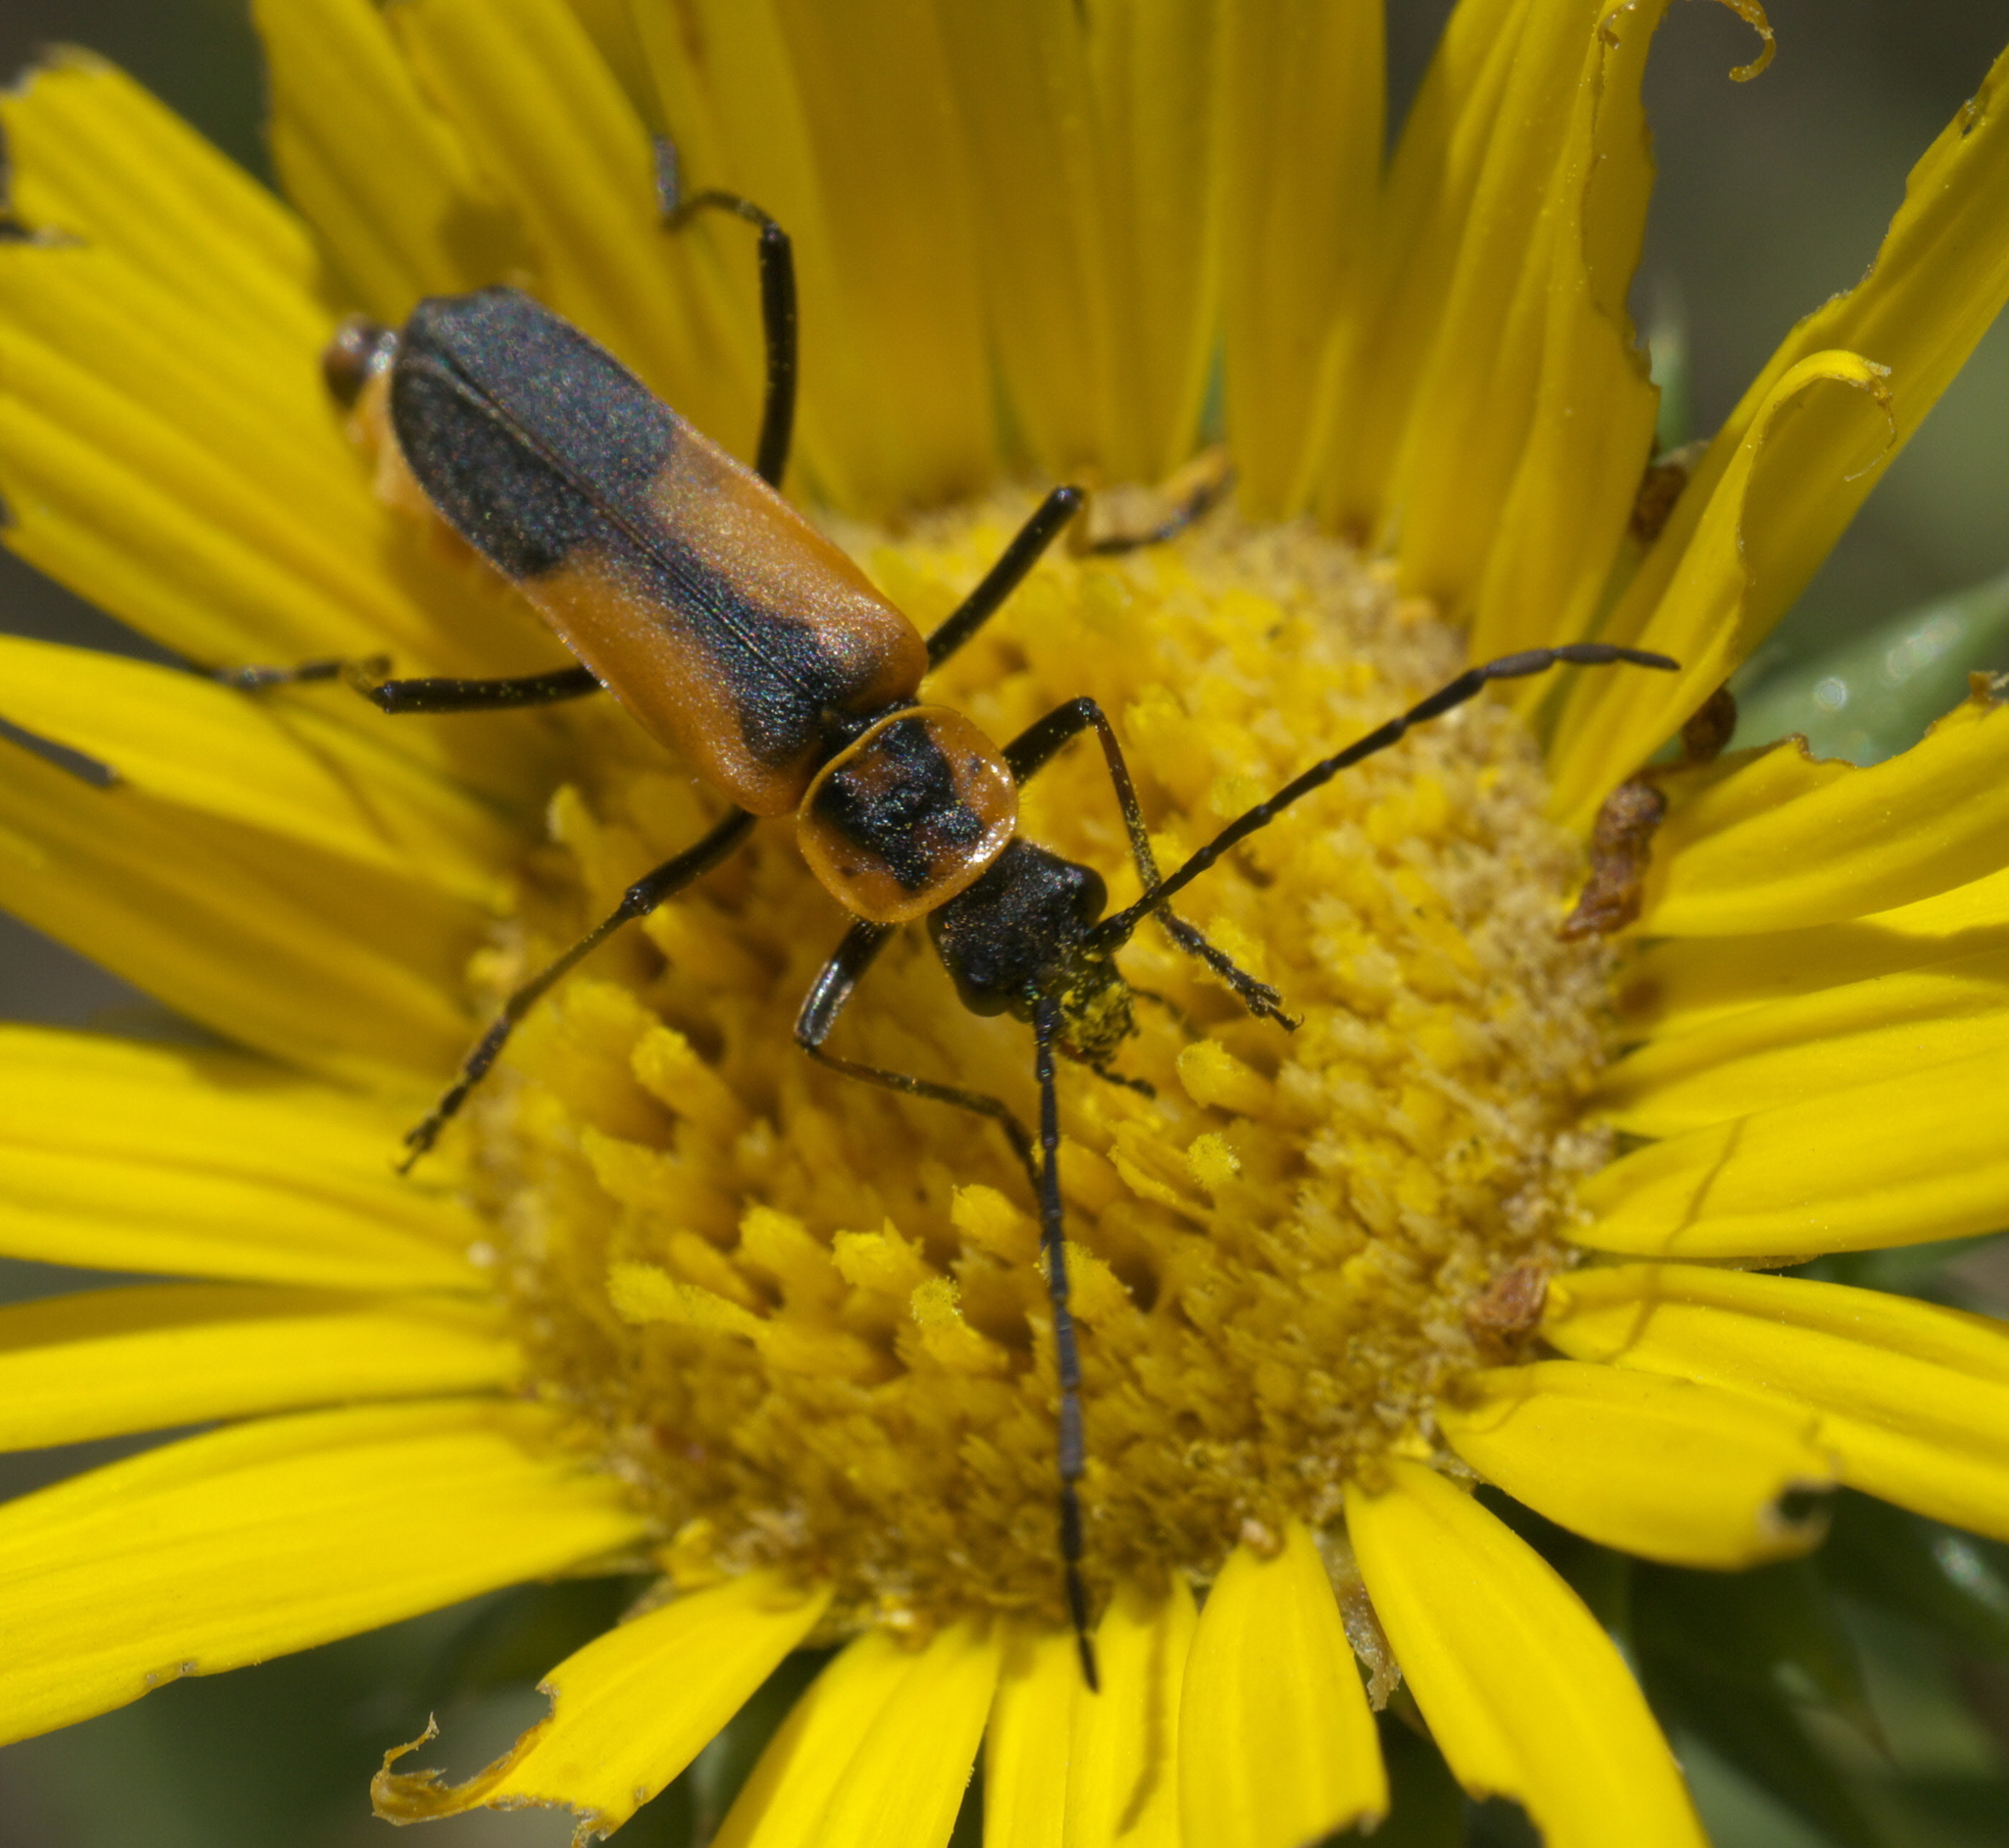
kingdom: Animalia
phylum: Arthropoda
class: Insecta
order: Coleoptera
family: Cantharidae
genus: Chauliognathus
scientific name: Chauliognathus limbicollis
